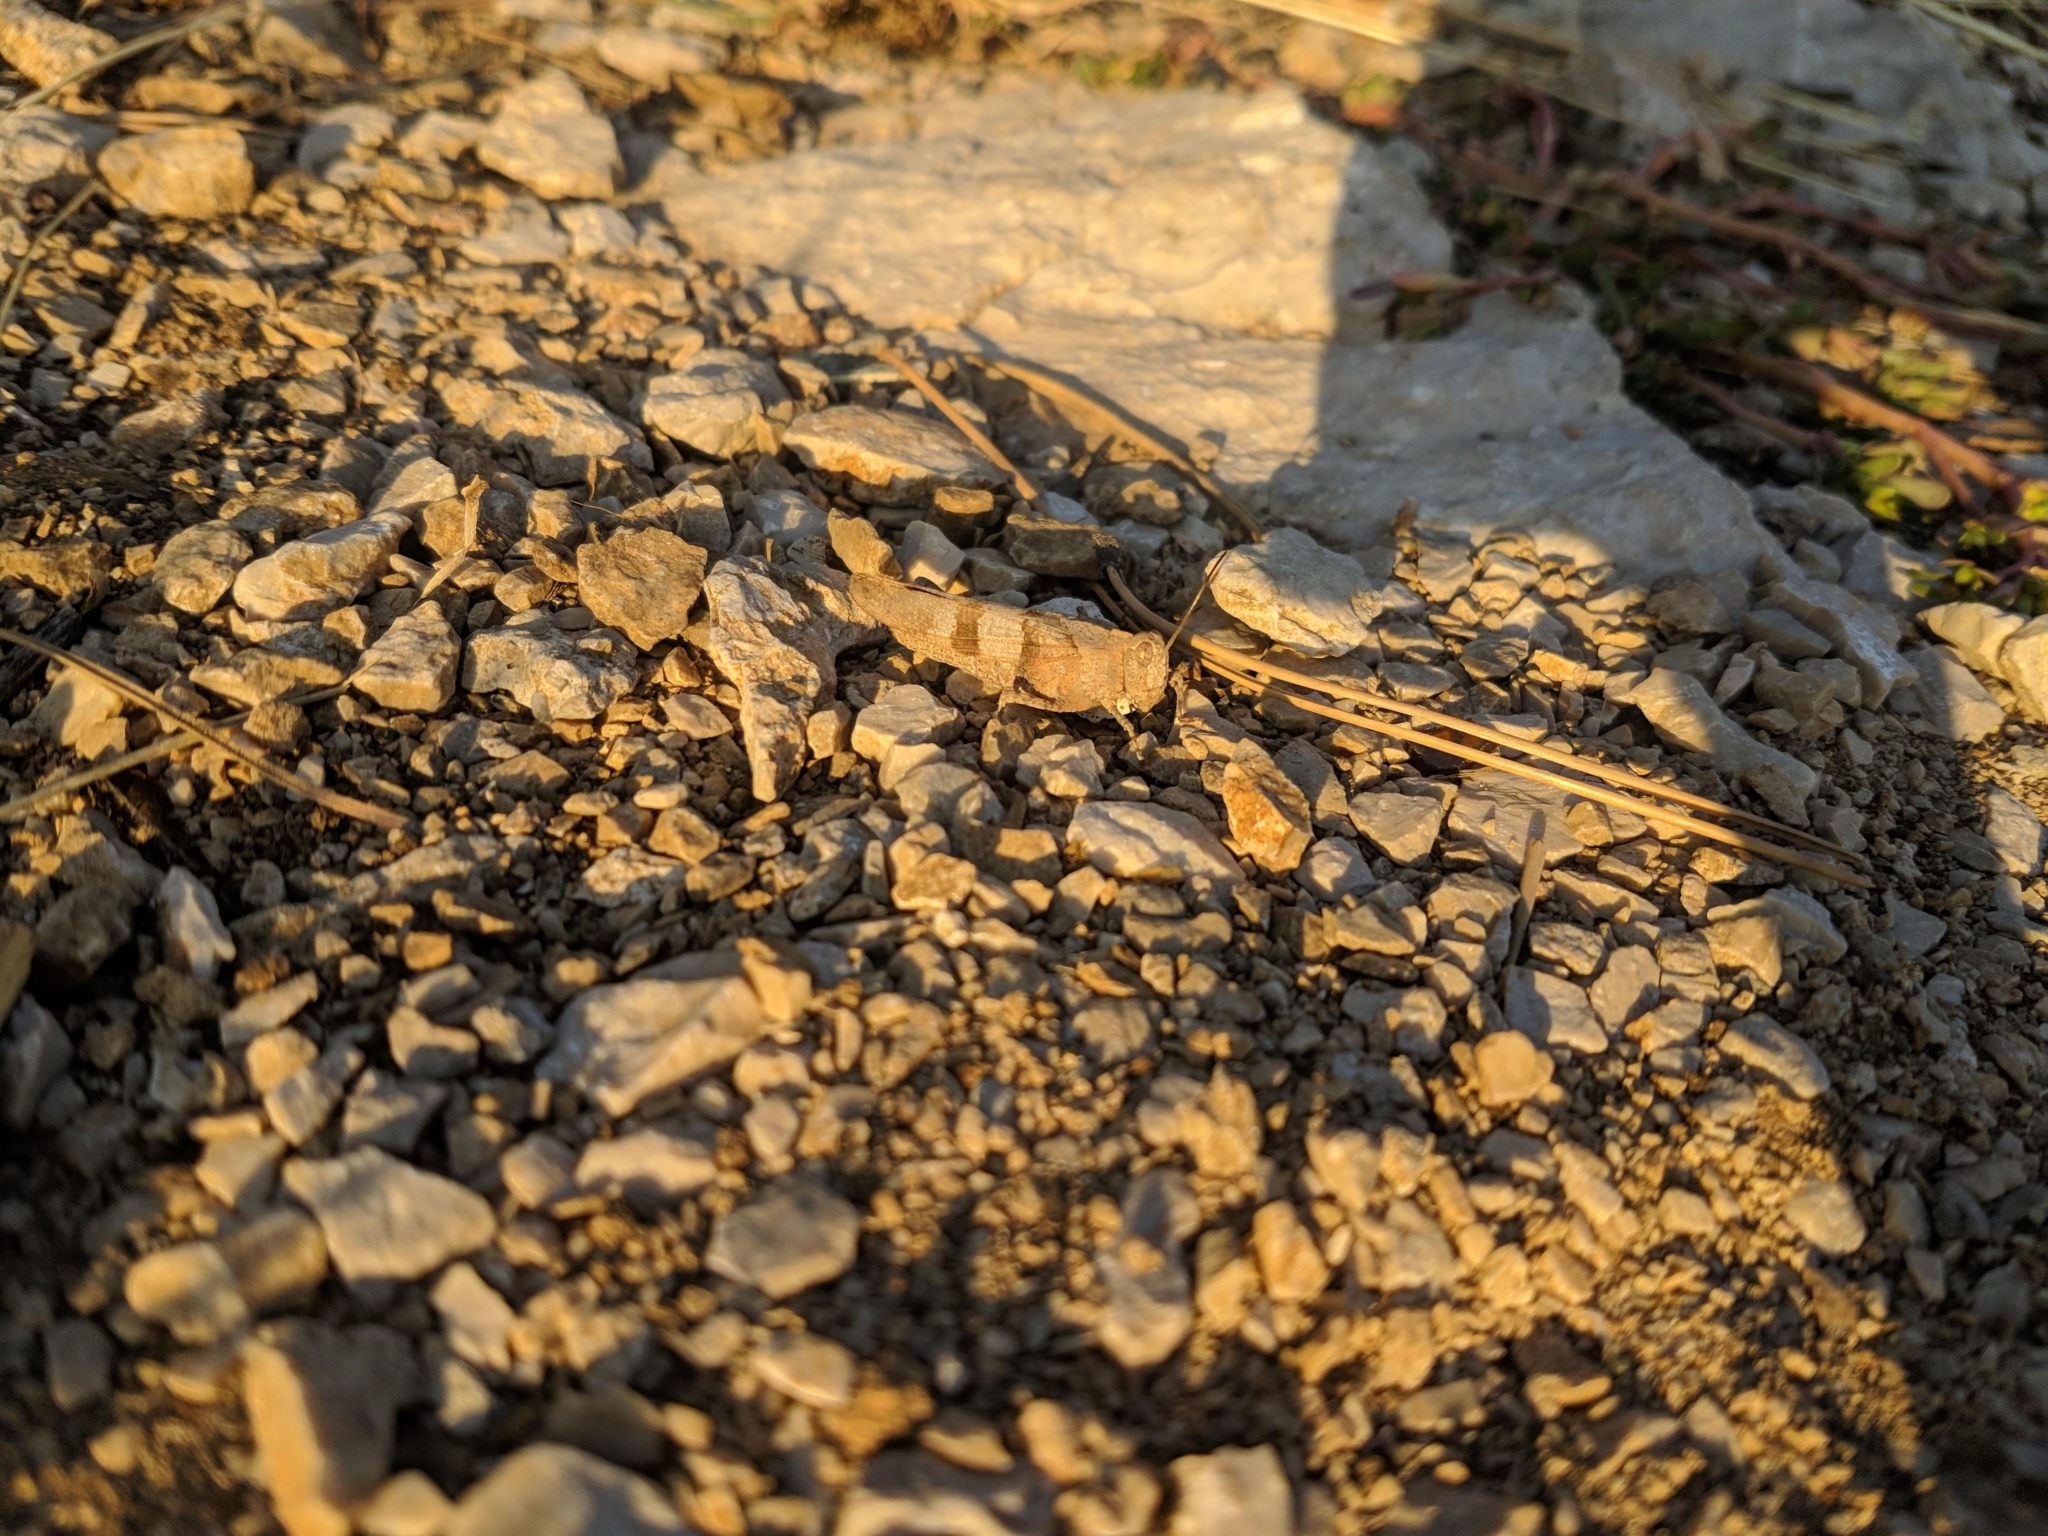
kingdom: Animalia
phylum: Arthropoda
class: Insecta
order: Orthoptera
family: Acrididae
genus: Oedipoda
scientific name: Oedipoda caerulescens
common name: Blue-winged grasshopper
